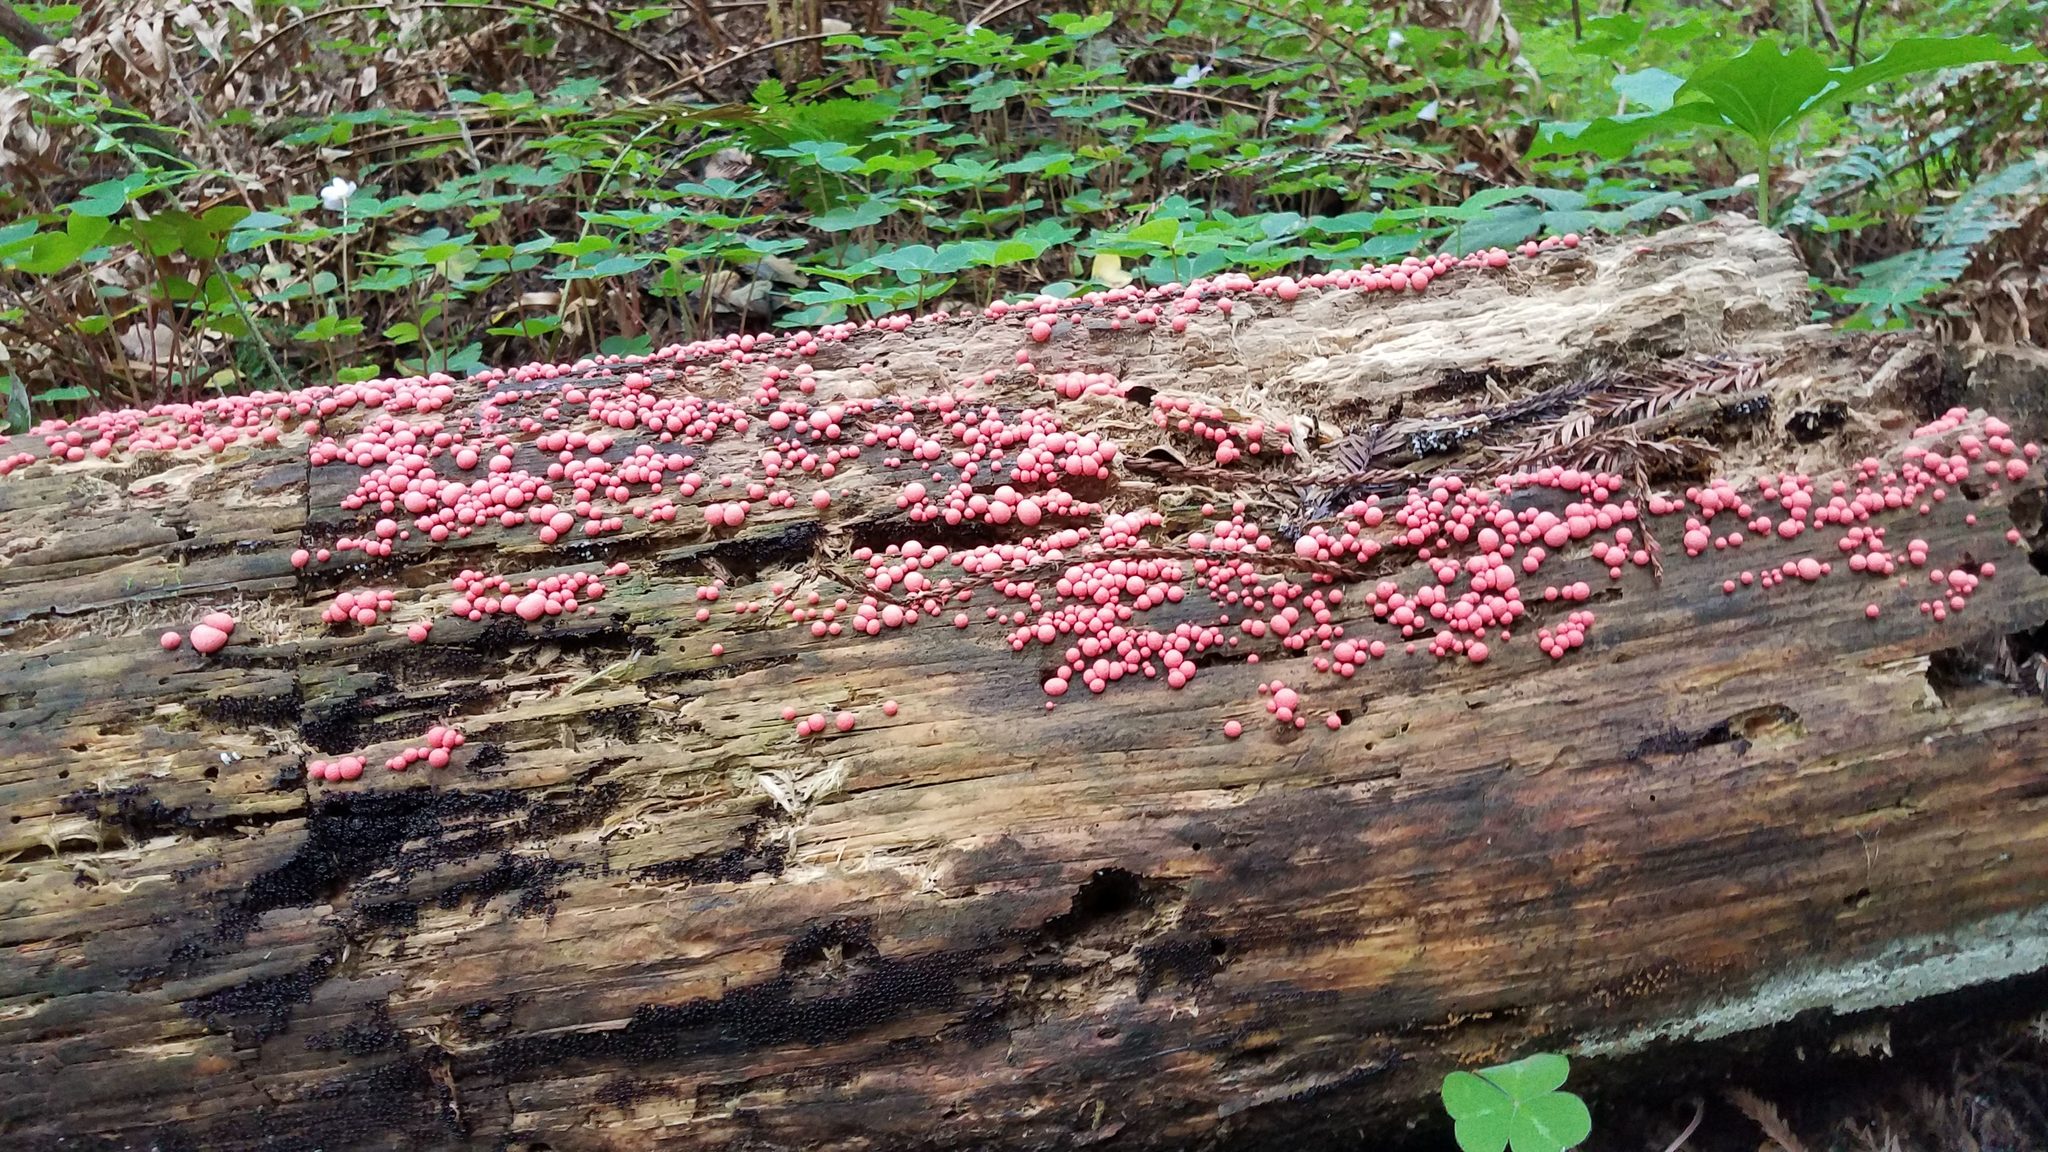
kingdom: Protozoa
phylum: Mycetozoa
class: Myxomycetes
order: Cribrariales
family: Tubiferaceae
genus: Lycogala
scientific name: Lycogala epidendrum
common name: Wolf's milk
